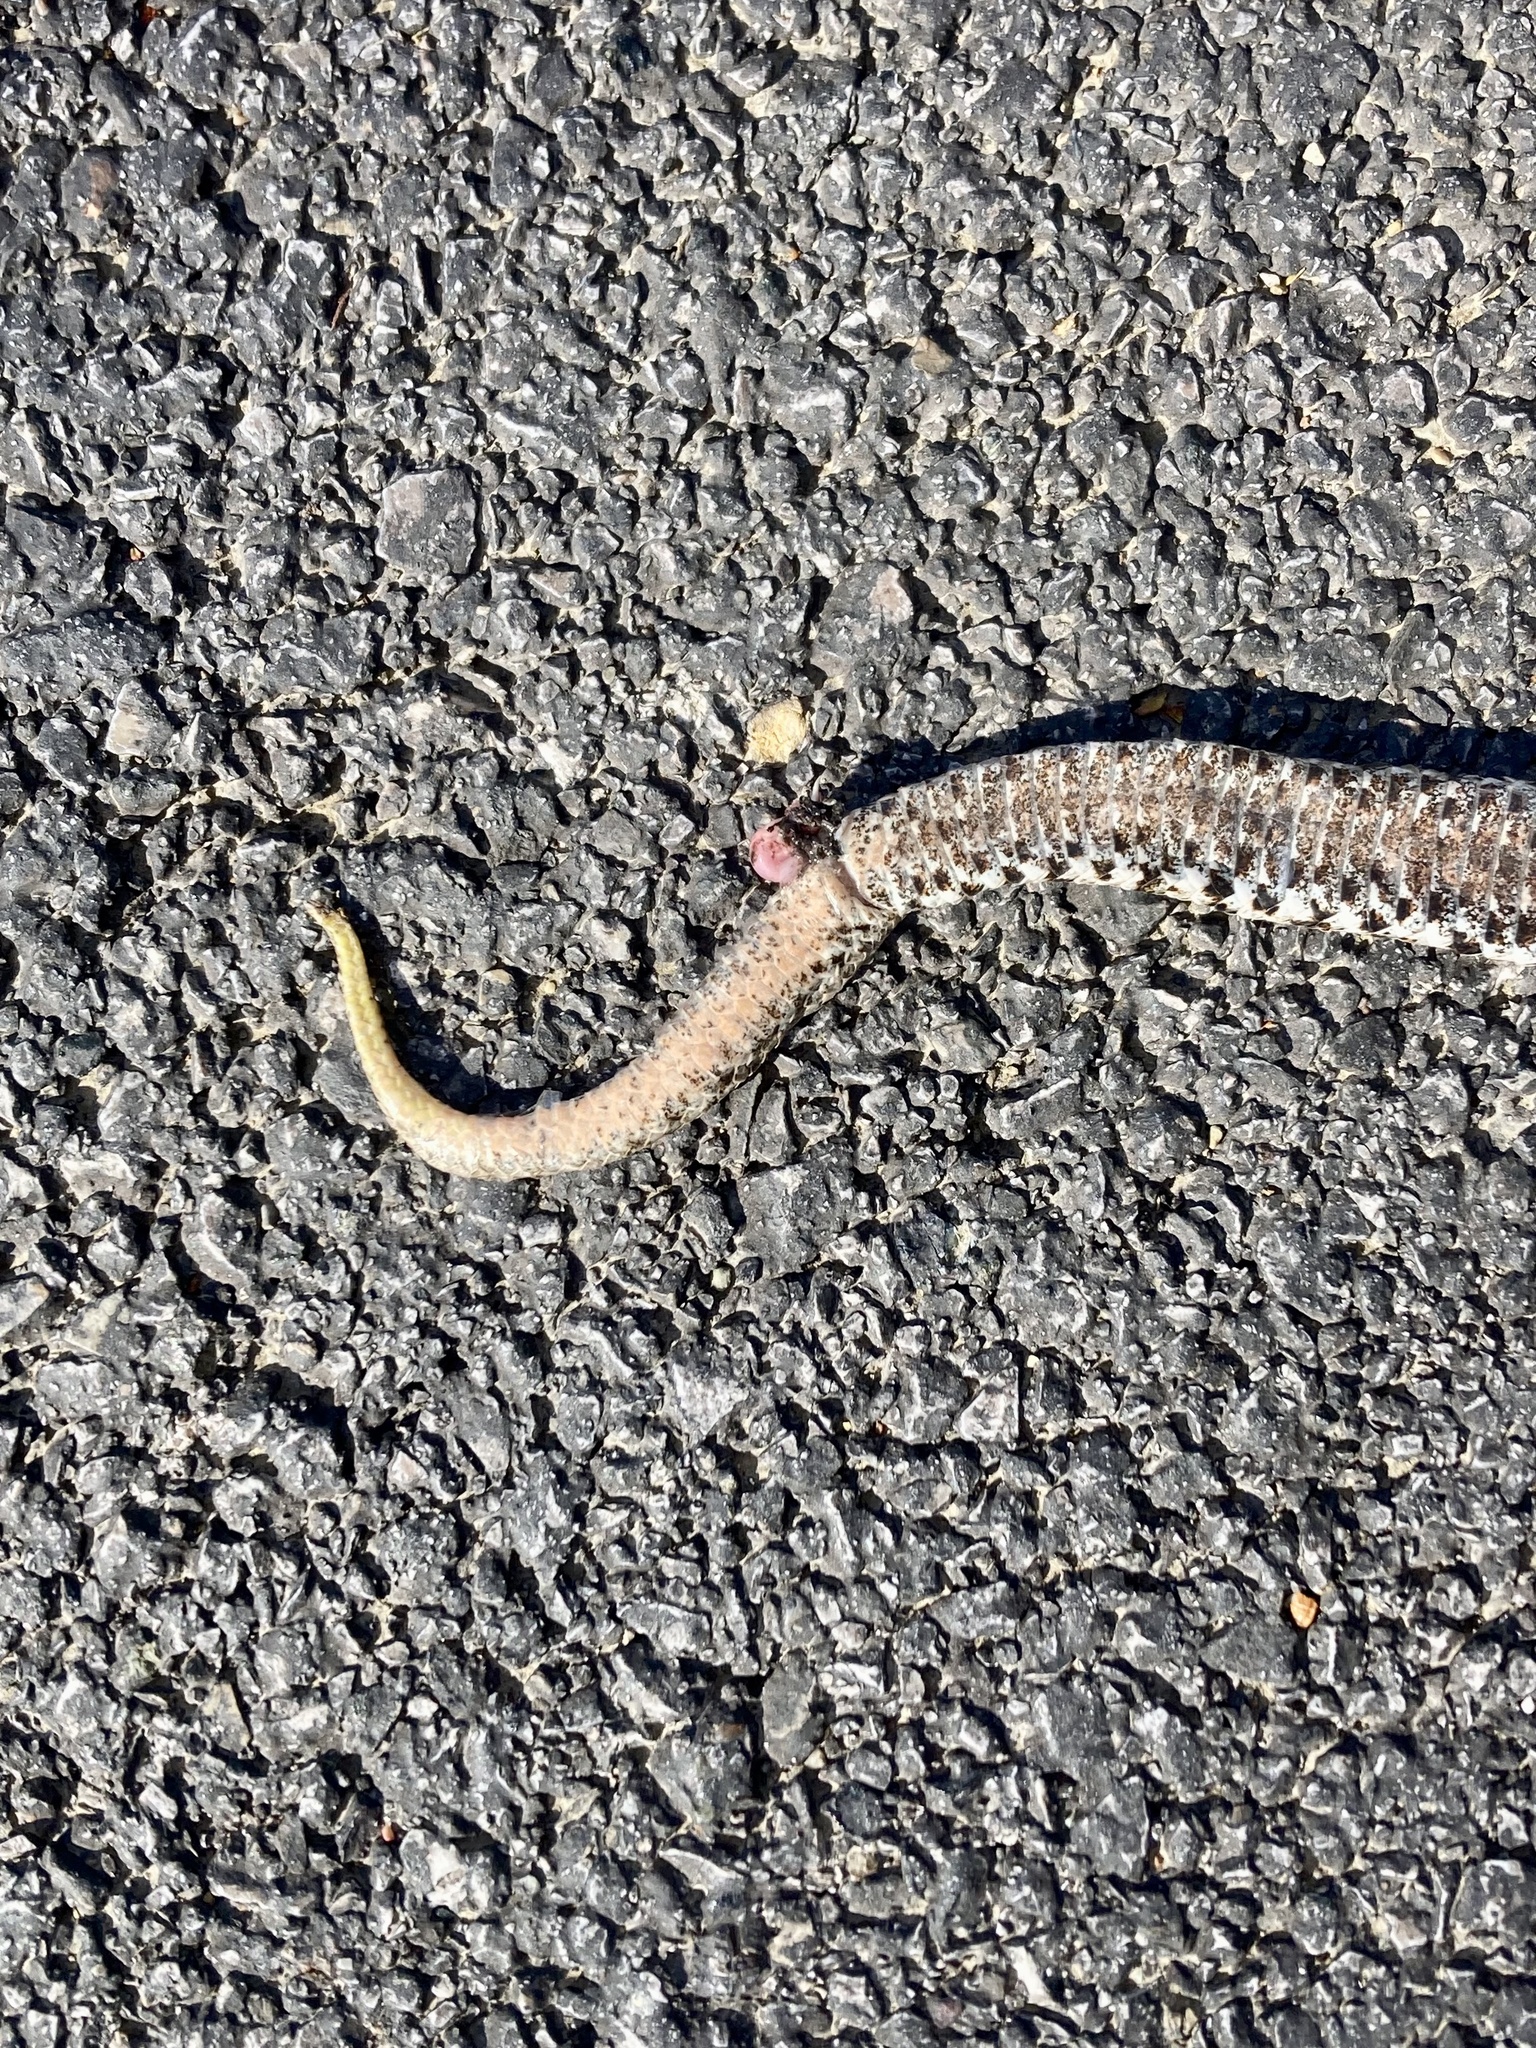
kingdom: Animalia
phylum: Chordata
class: Squamata
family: Viperidae
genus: Vipera
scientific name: Vipera aspis
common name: Asp viper
